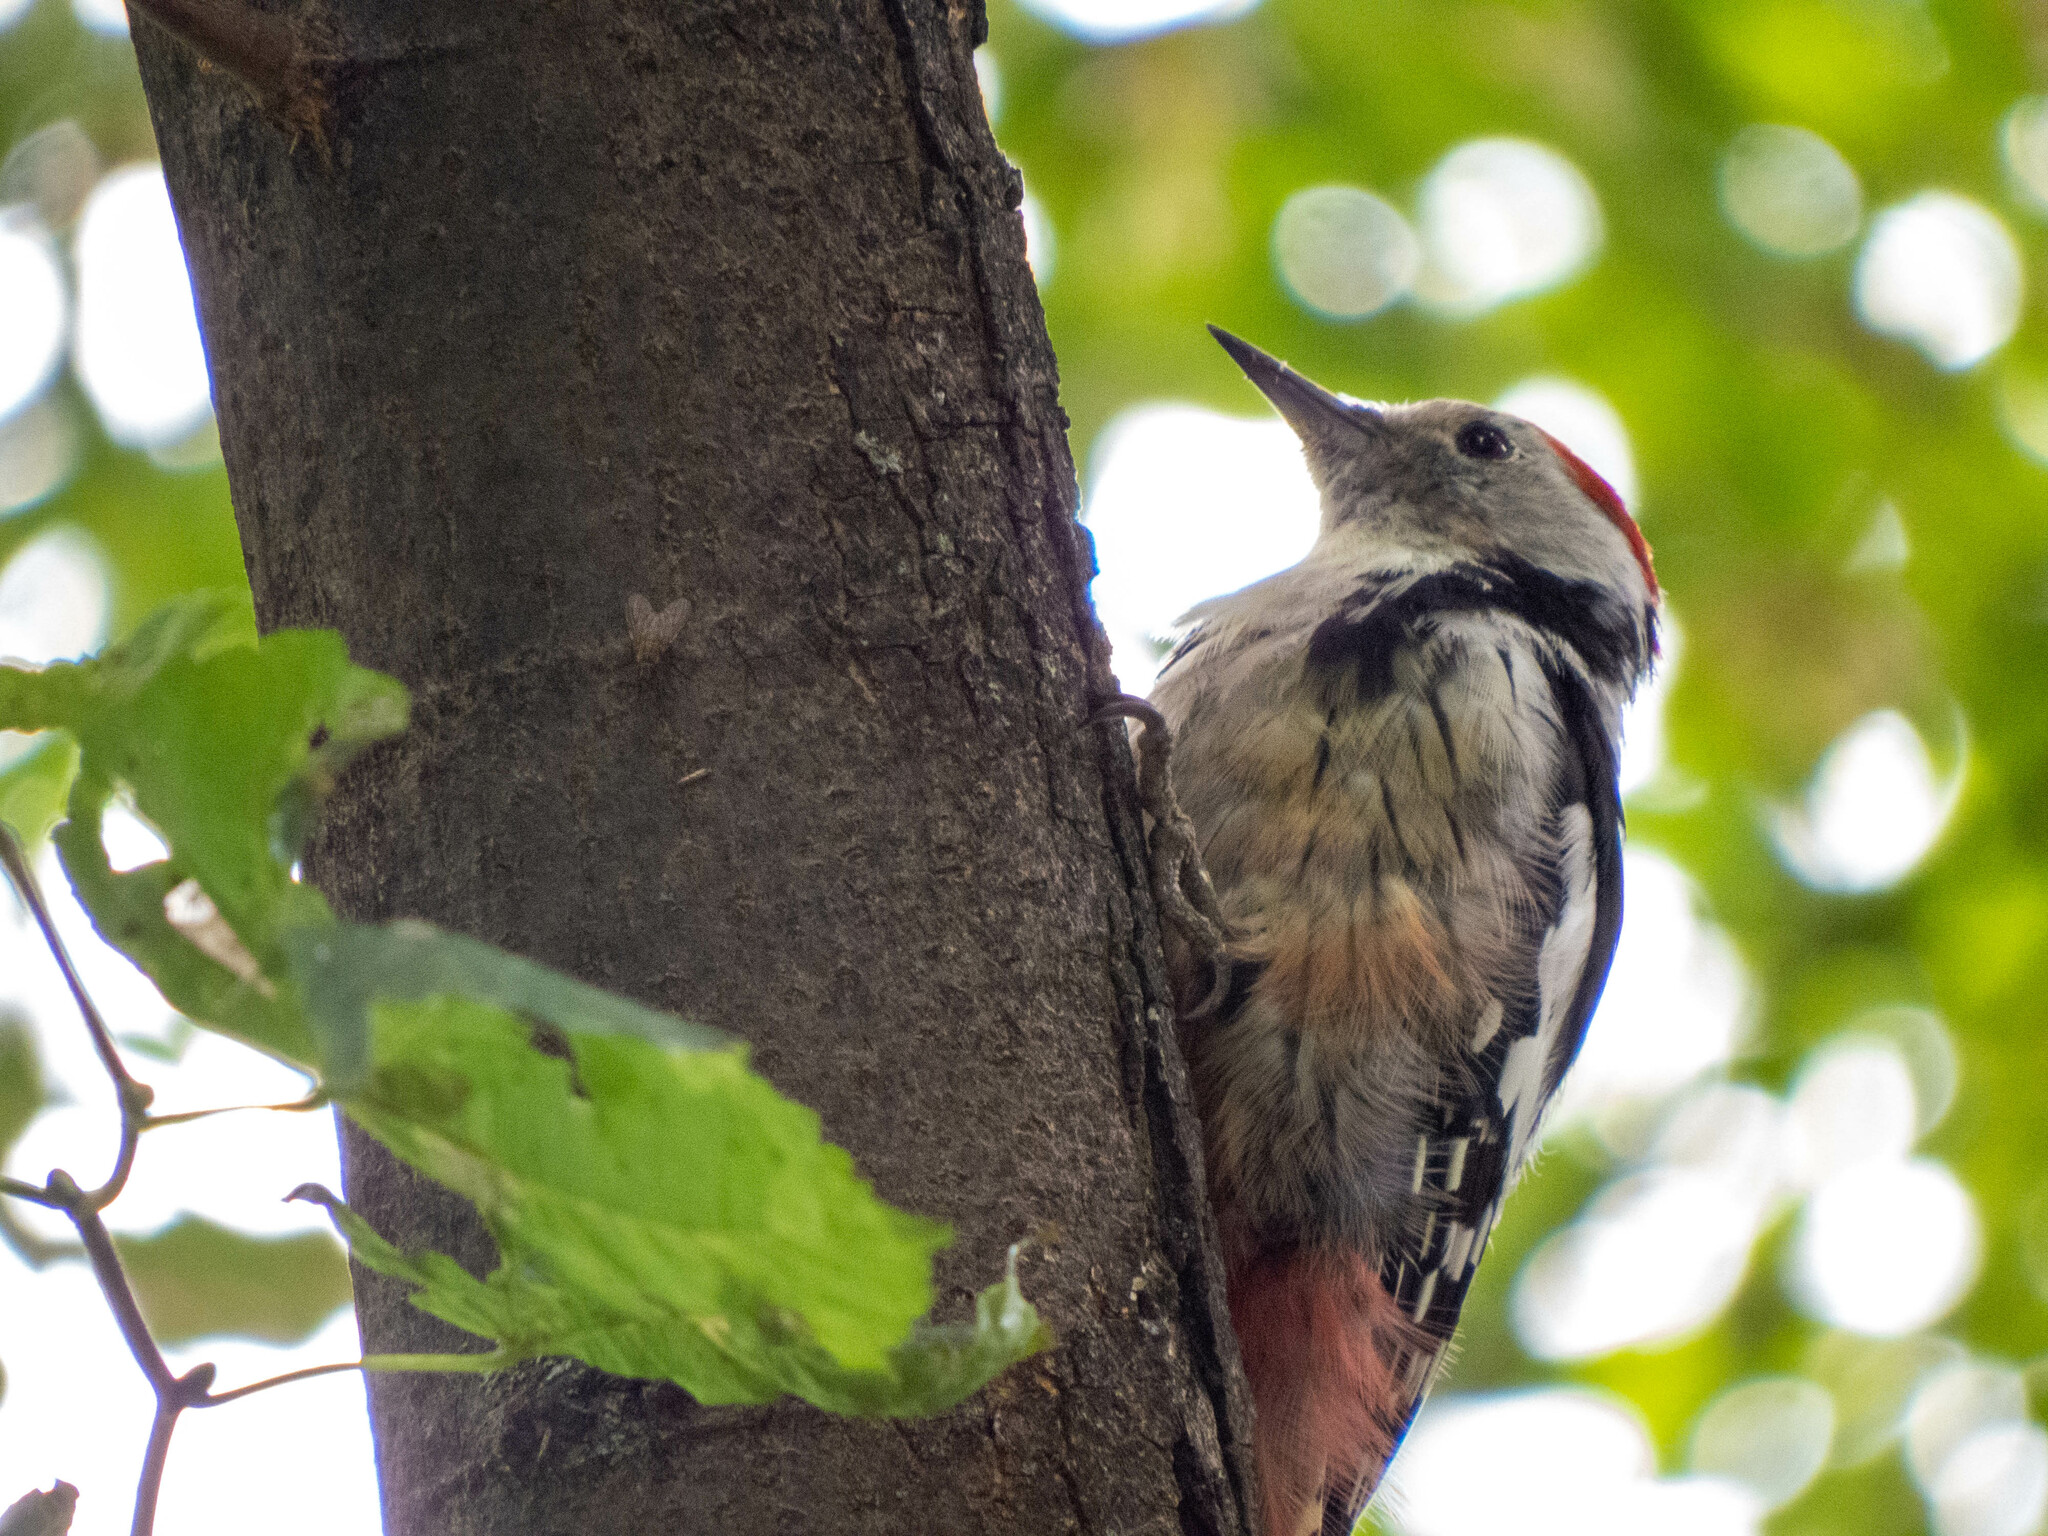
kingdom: Animalia
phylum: Chordata
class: Aves
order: Piciformes
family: Picidae
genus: Dendrocoptes
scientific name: Dendrocoptes medius
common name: Middle spotted woodpecker
